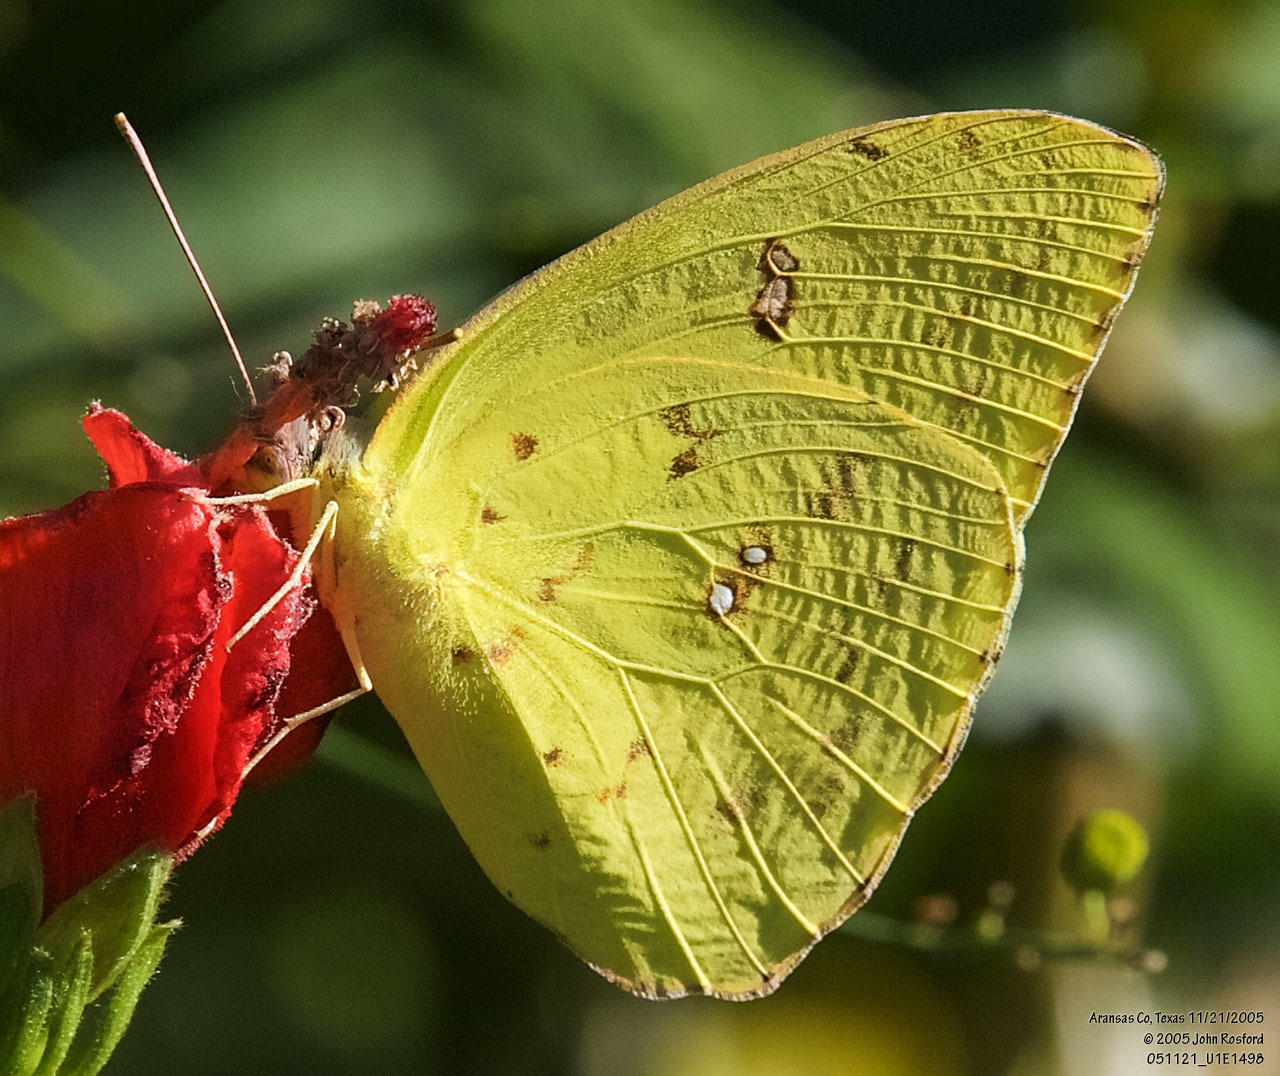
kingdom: Animalia
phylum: Arthropoda
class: Insecta
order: Lepidoptera
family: Pieridae
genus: Phoebis
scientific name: Phoebis sennae
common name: Cloudless sulphur
